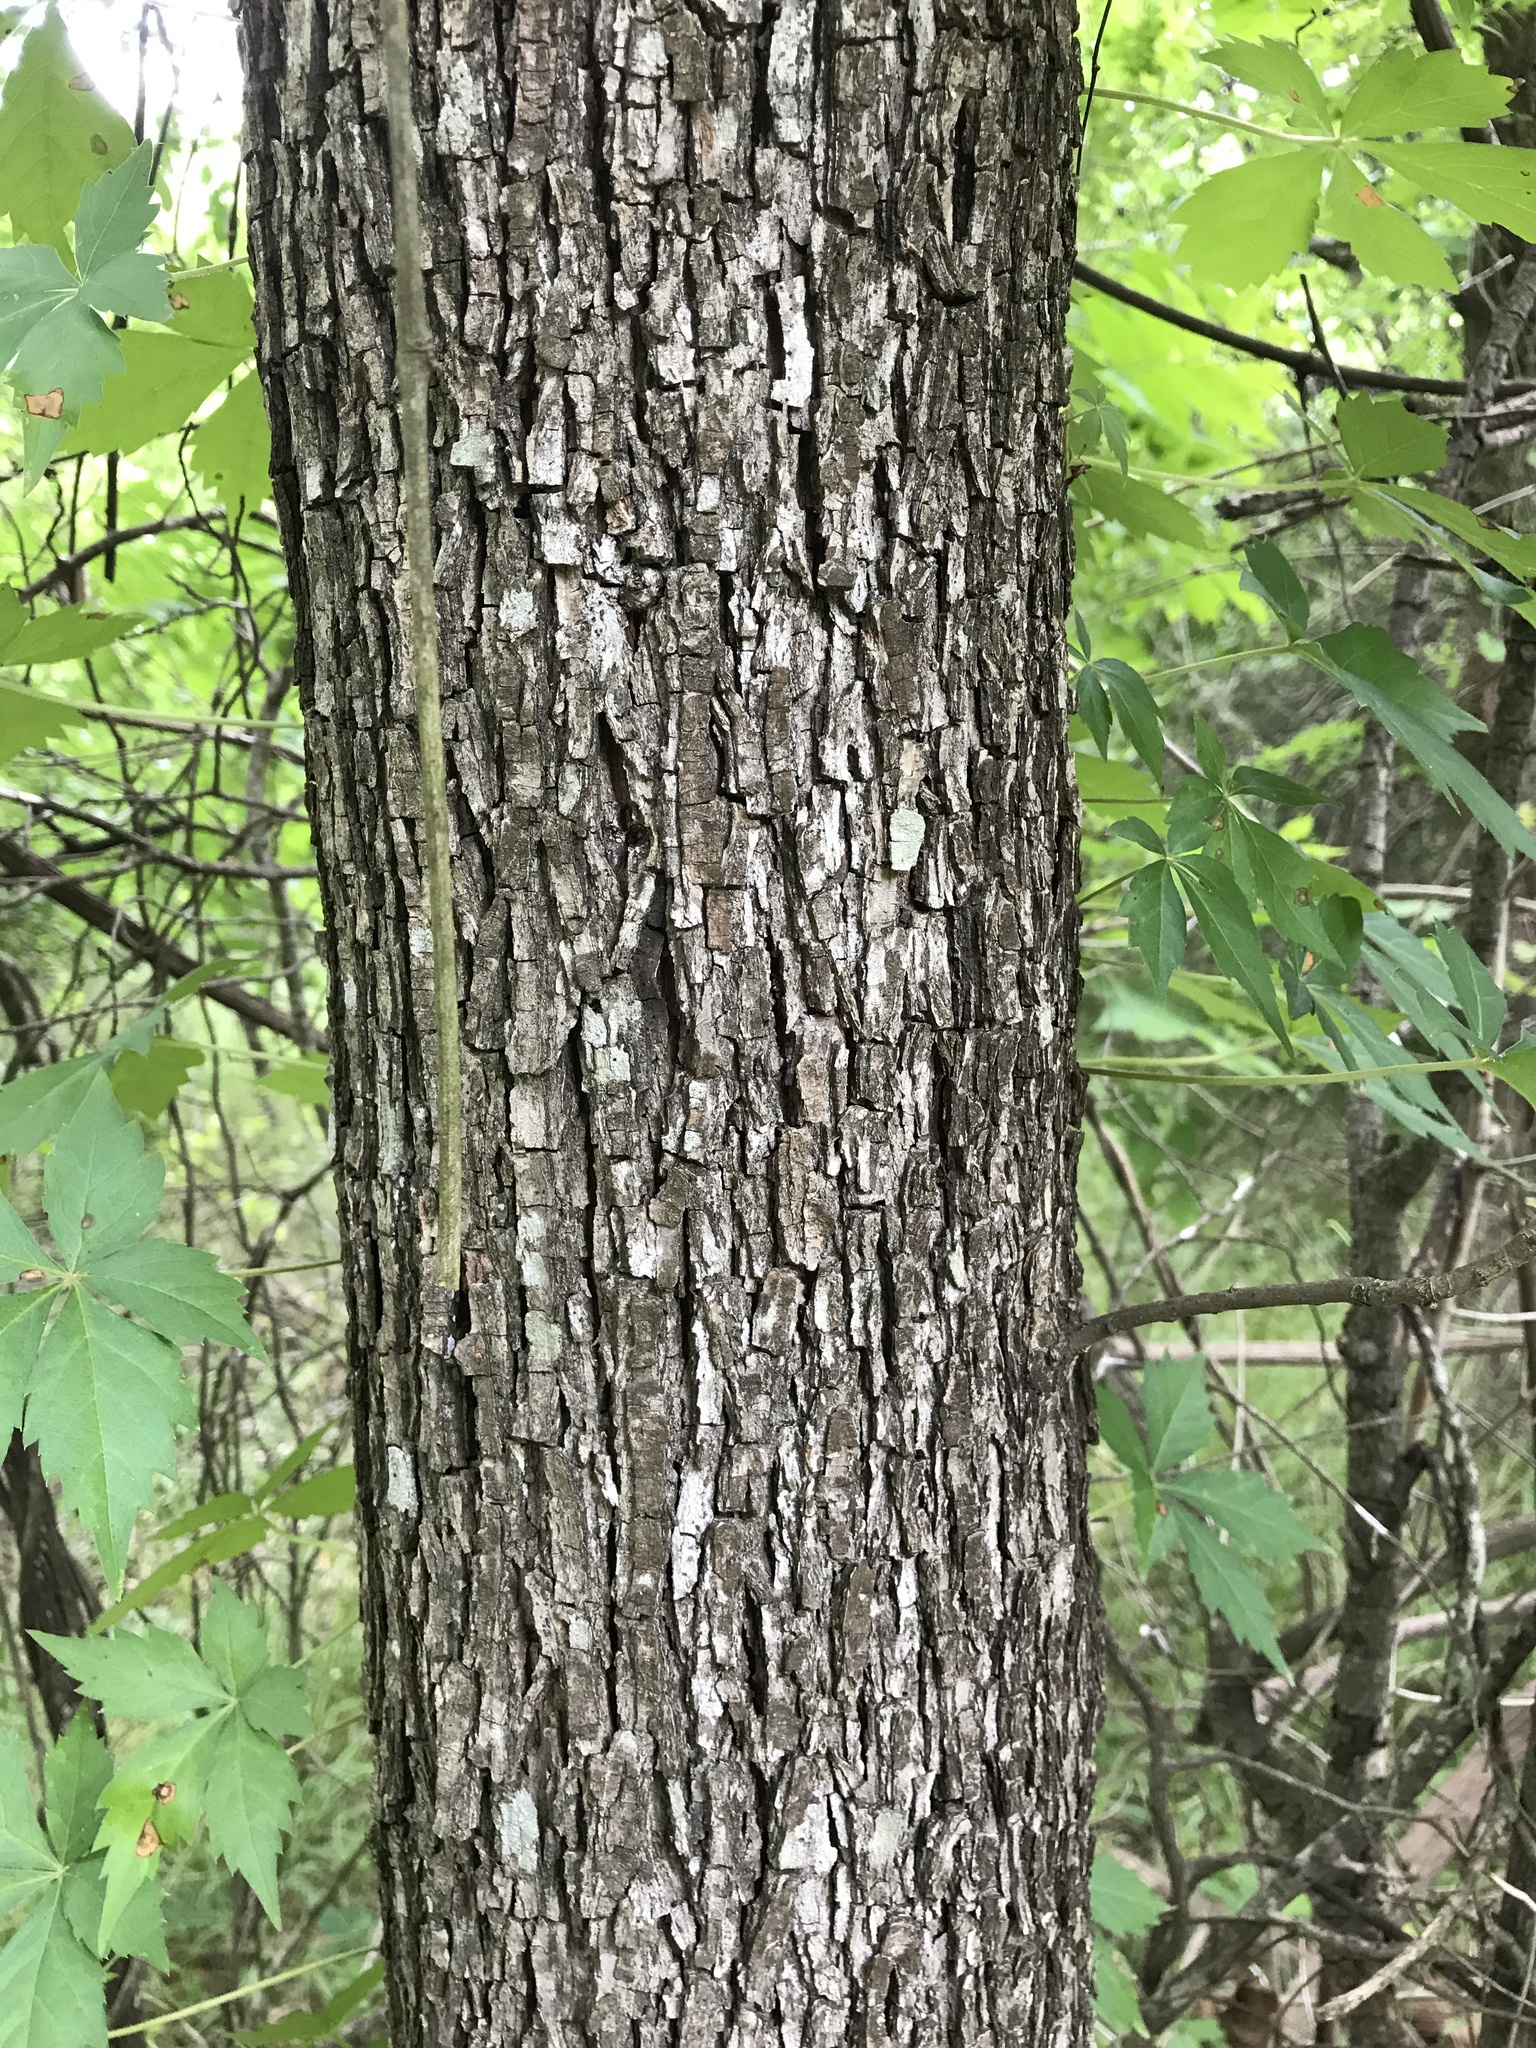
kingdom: Plantae
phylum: Tracheophyta
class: Magnoliopsida
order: Fagales
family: Juglandaceae
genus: Carya
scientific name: Carya illinoinensis
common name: Pecan
